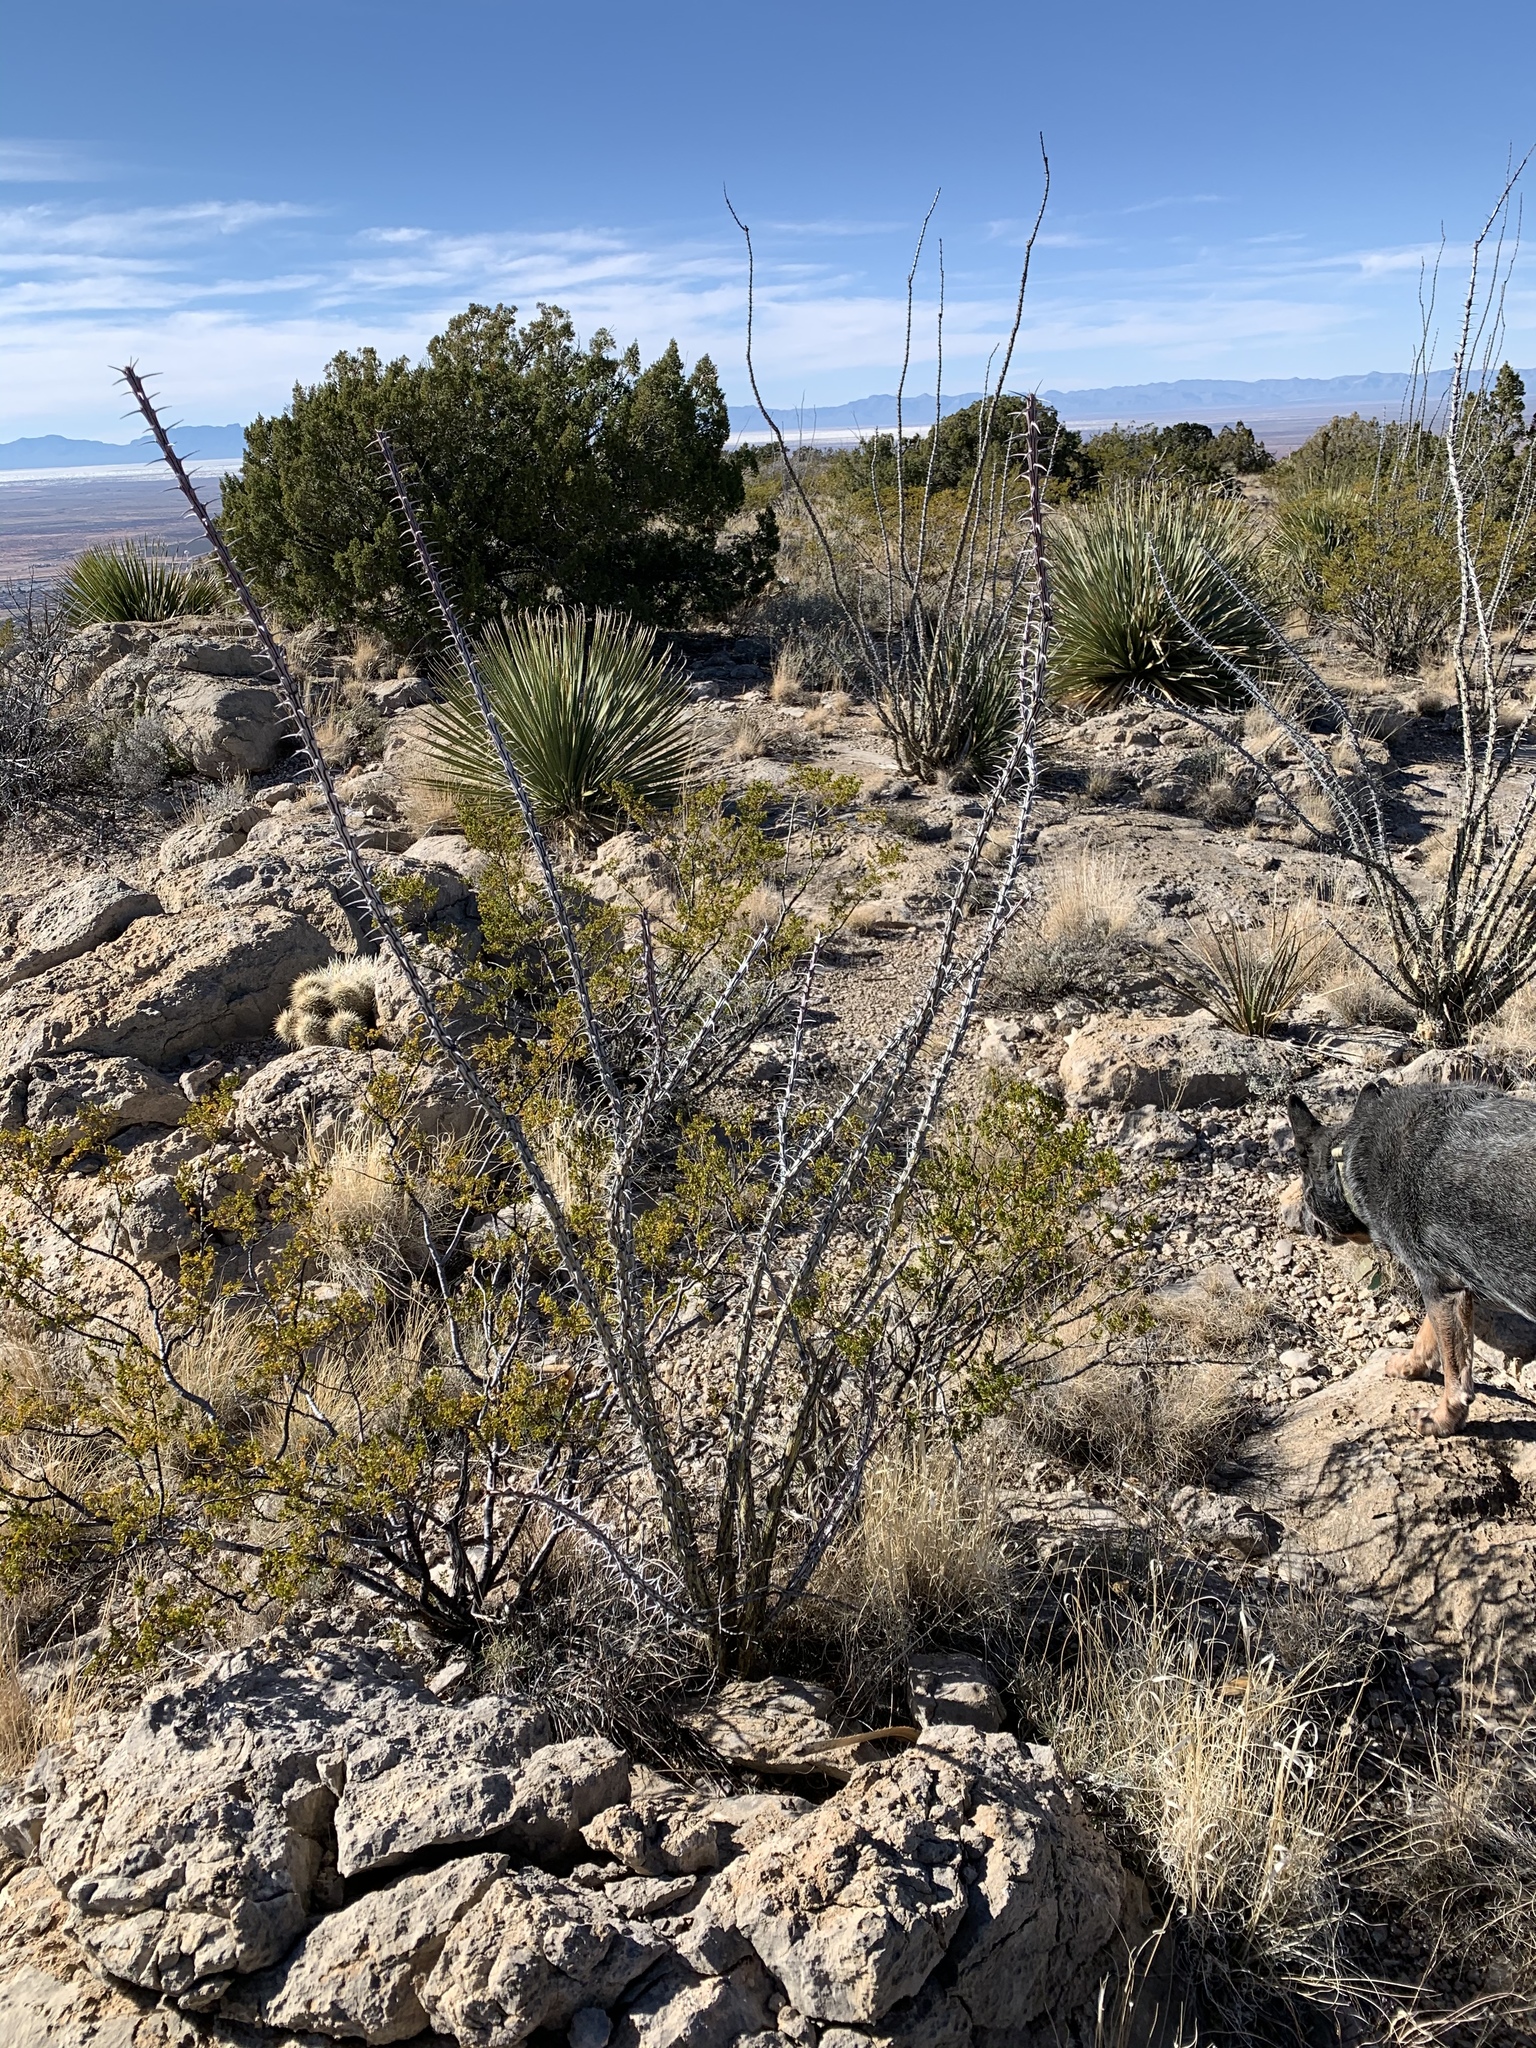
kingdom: Plantae
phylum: Tracheophyta
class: Magnoliopsida
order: Zygophyllales
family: Zygophyllaceae
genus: Larrea
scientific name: Larrea tridentata
